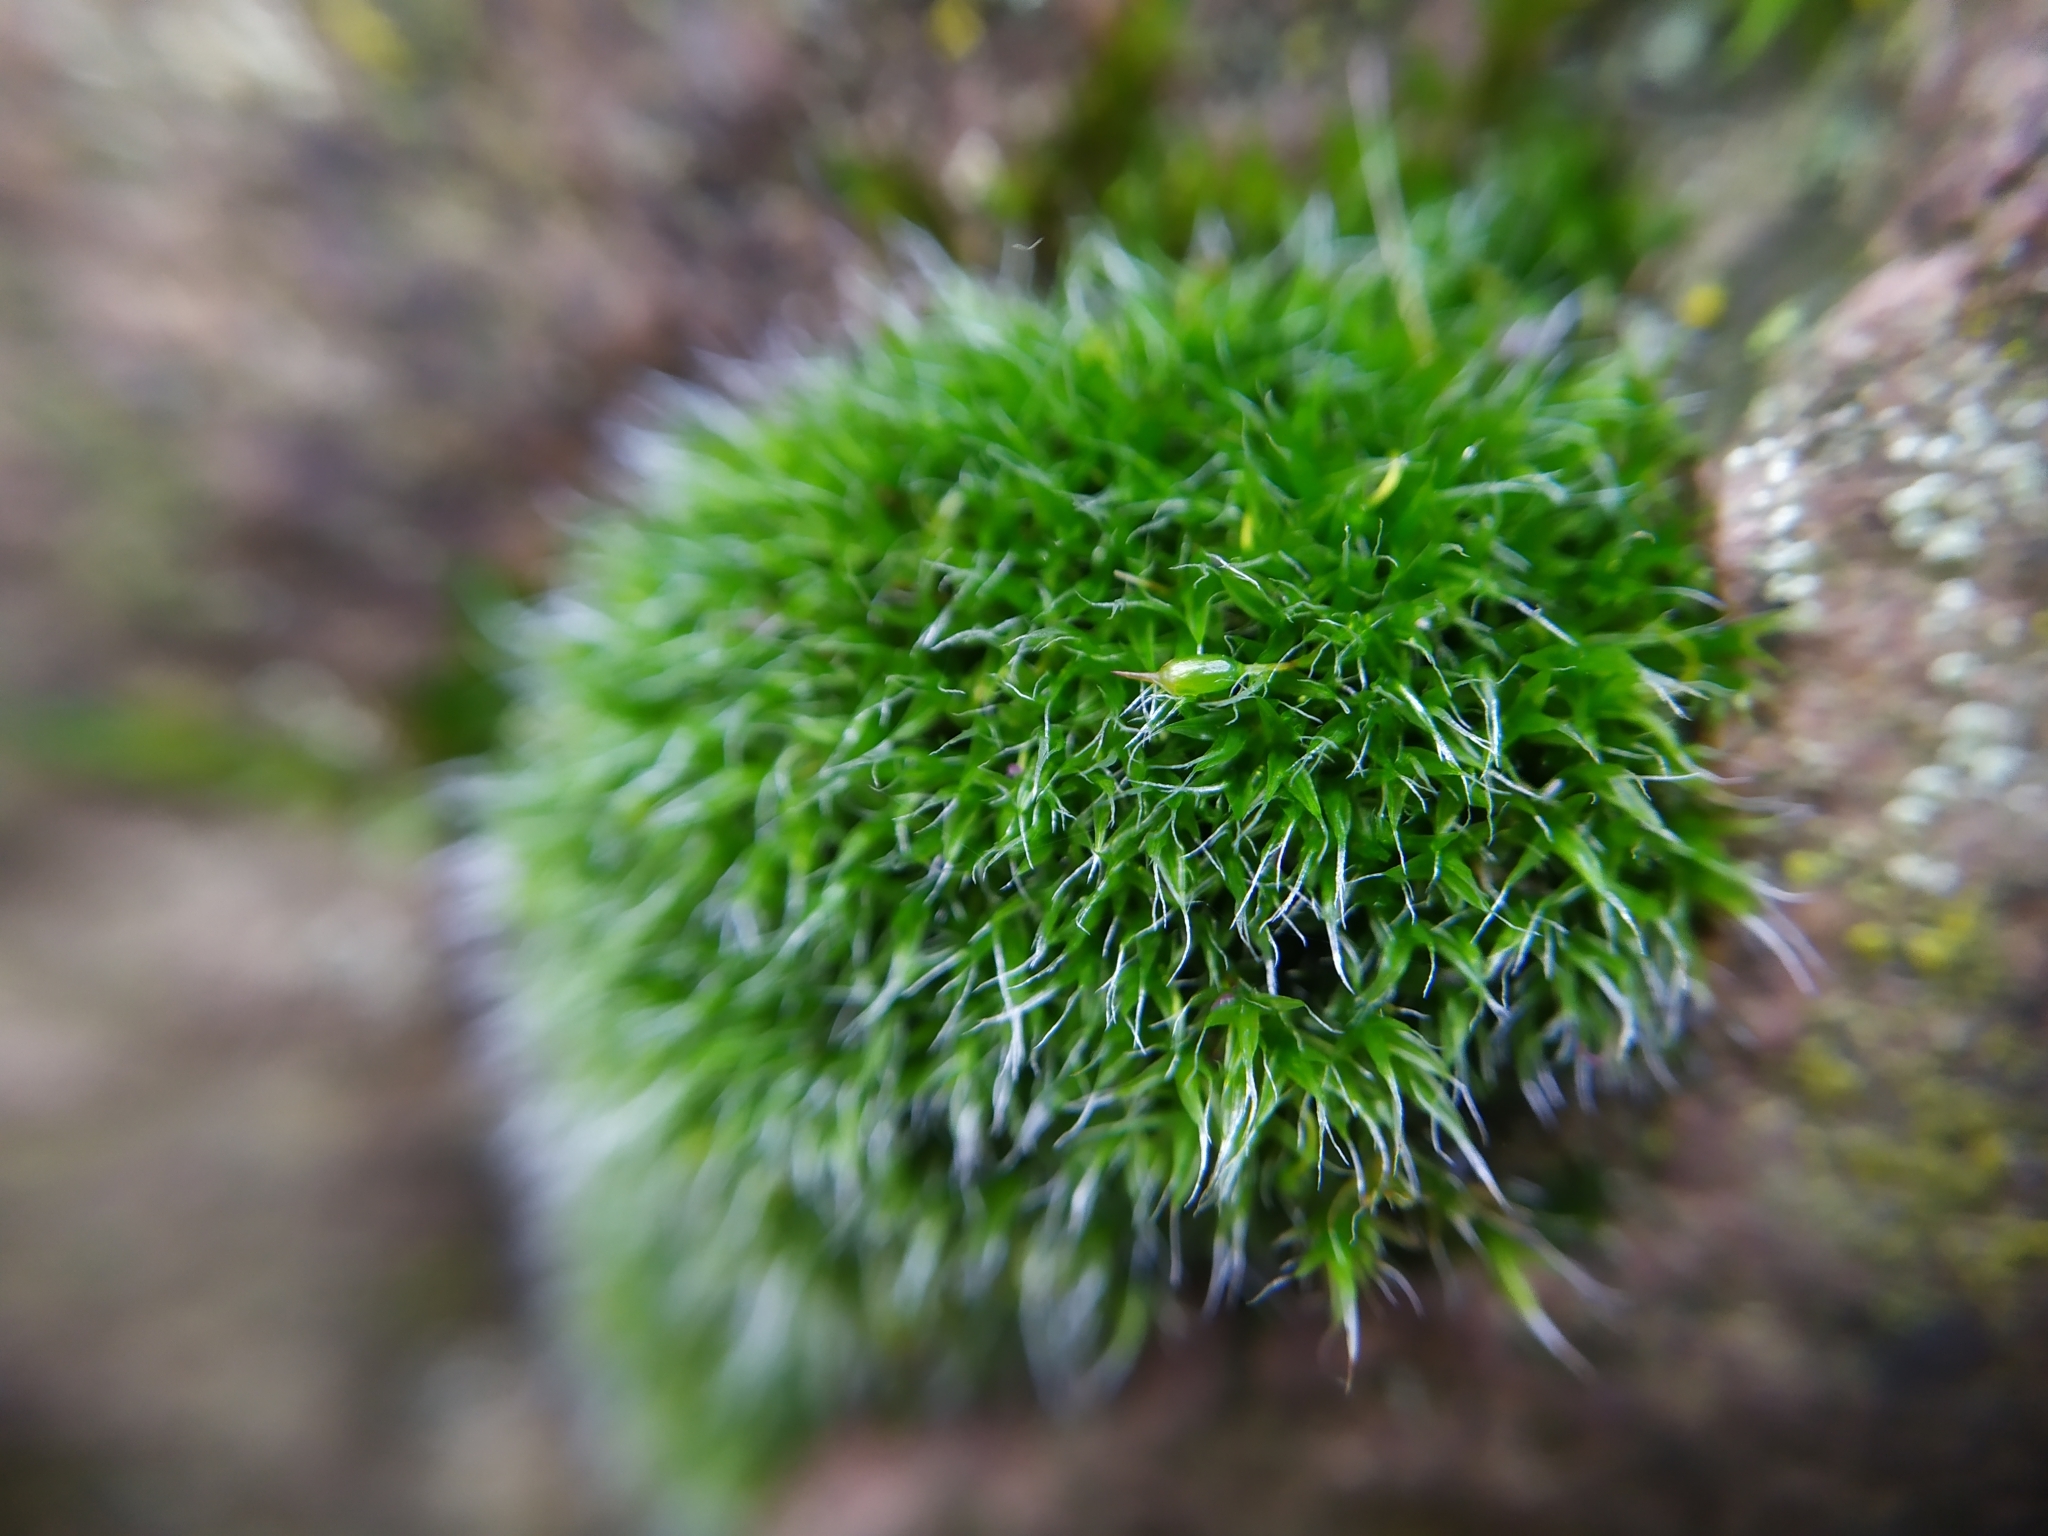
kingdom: Plantae
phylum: Bryophyta
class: Bryopsida
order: Grimmiales
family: Grimmiaceae
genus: Grimmia
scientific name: Grimmia pulvinata
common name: Grey-cushioned grimmia
